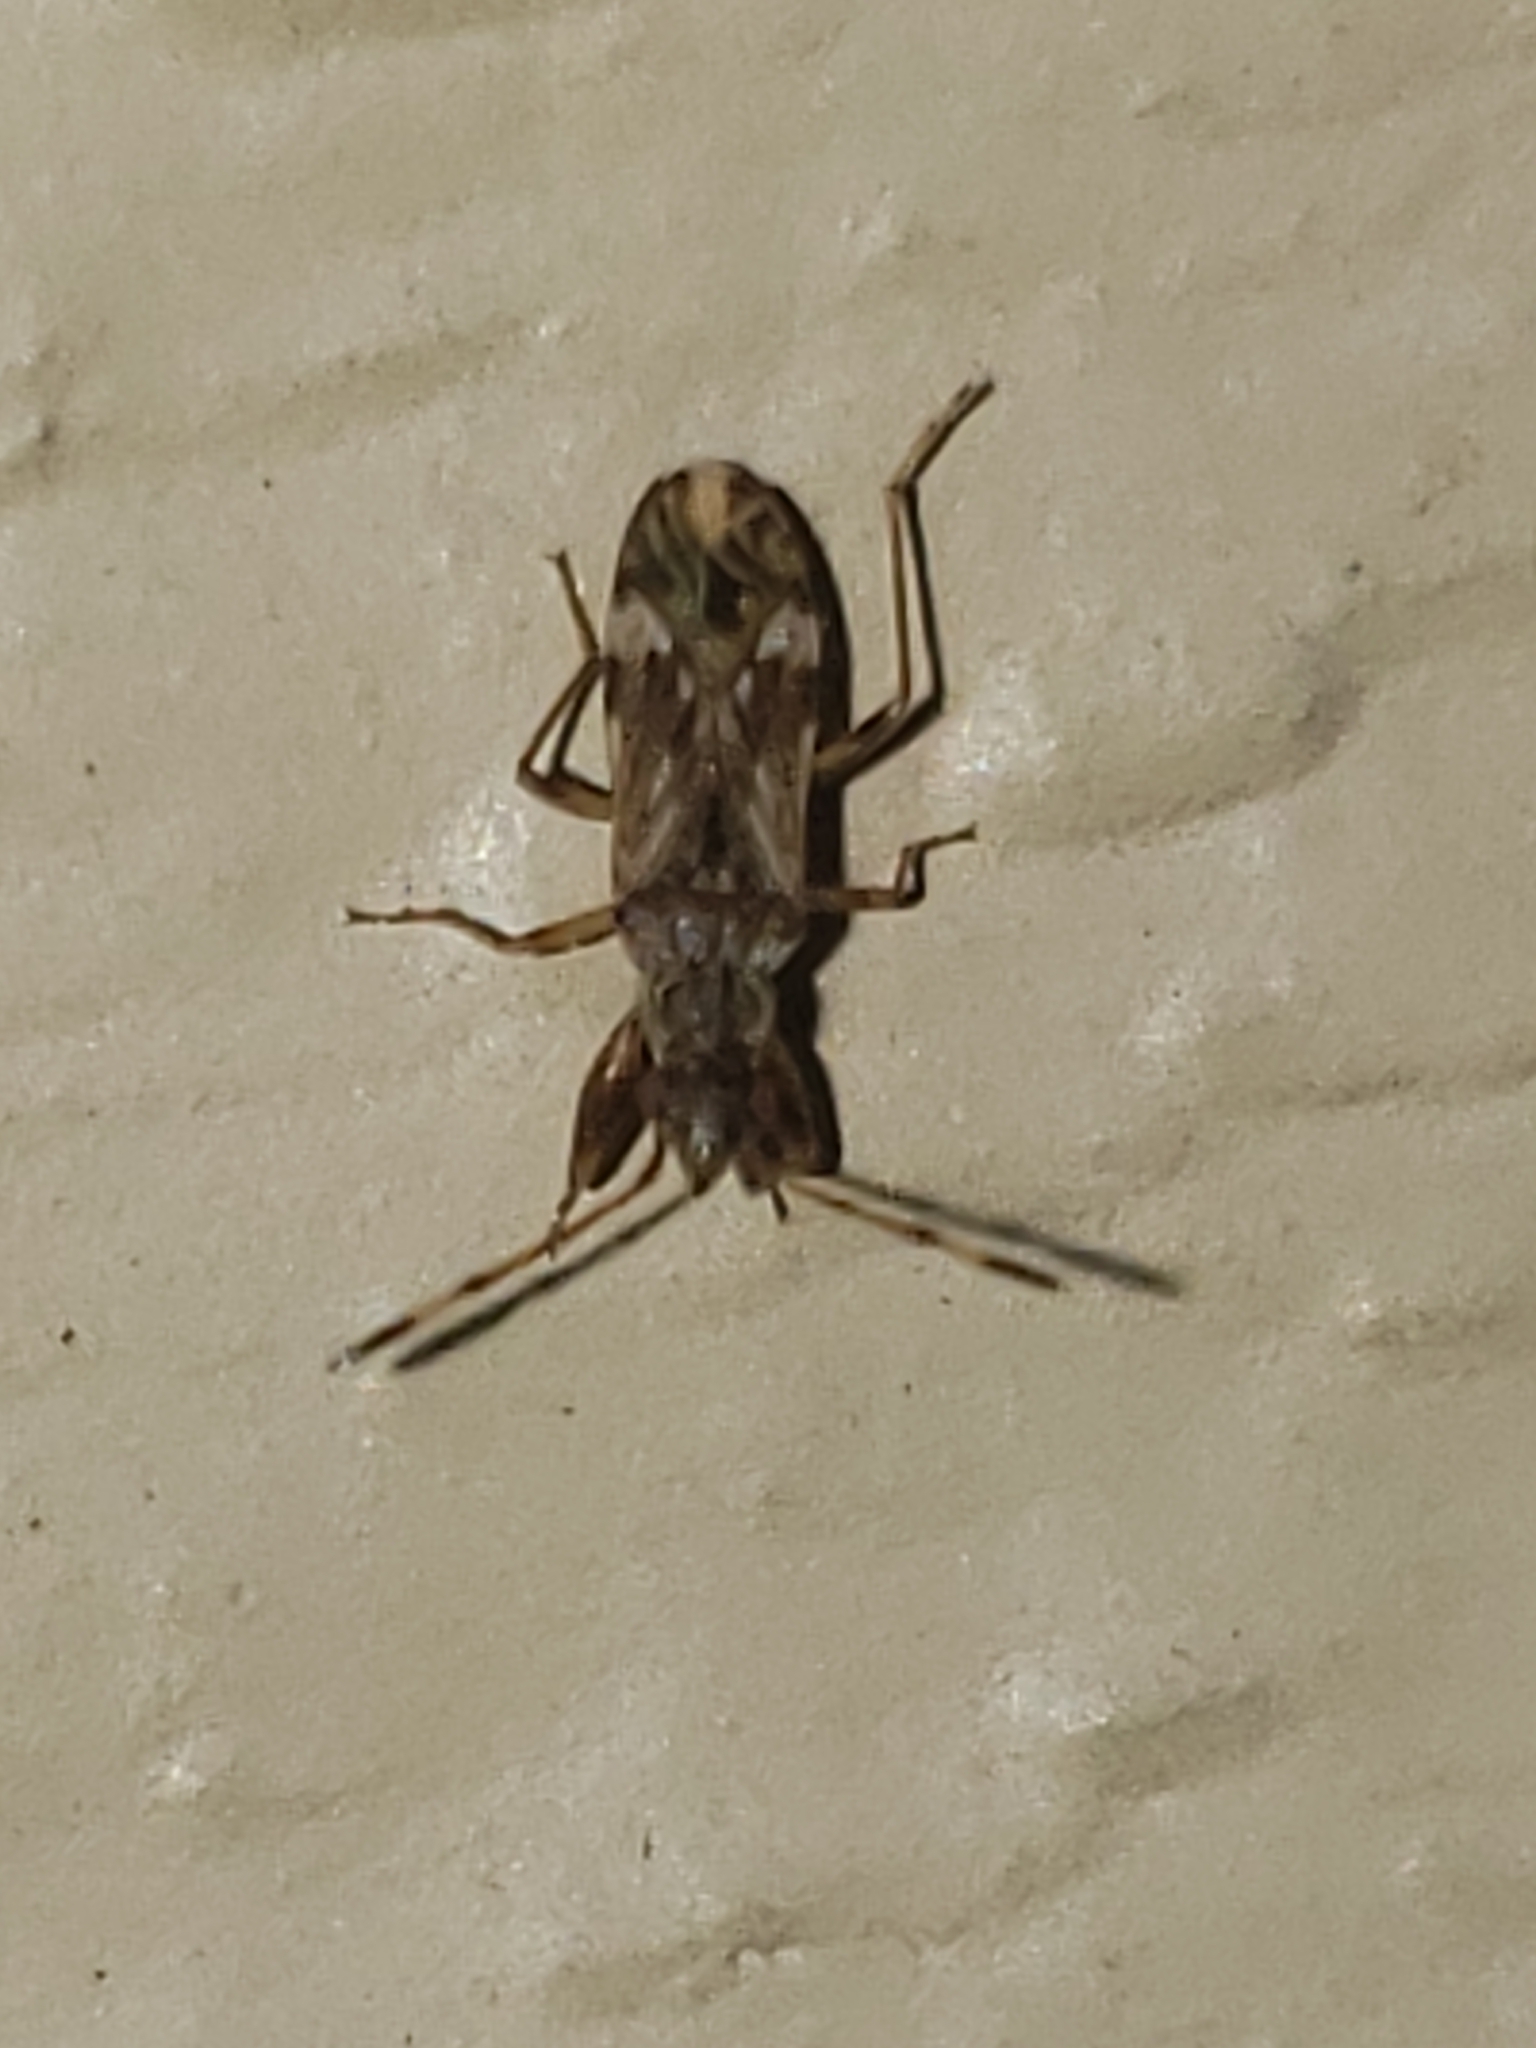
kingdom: Animalia
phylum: Arthropoda
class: Insecta
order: Hemiptera
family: Rhyparochromidae
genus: Neopamera
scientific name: Neopamera albocincta
